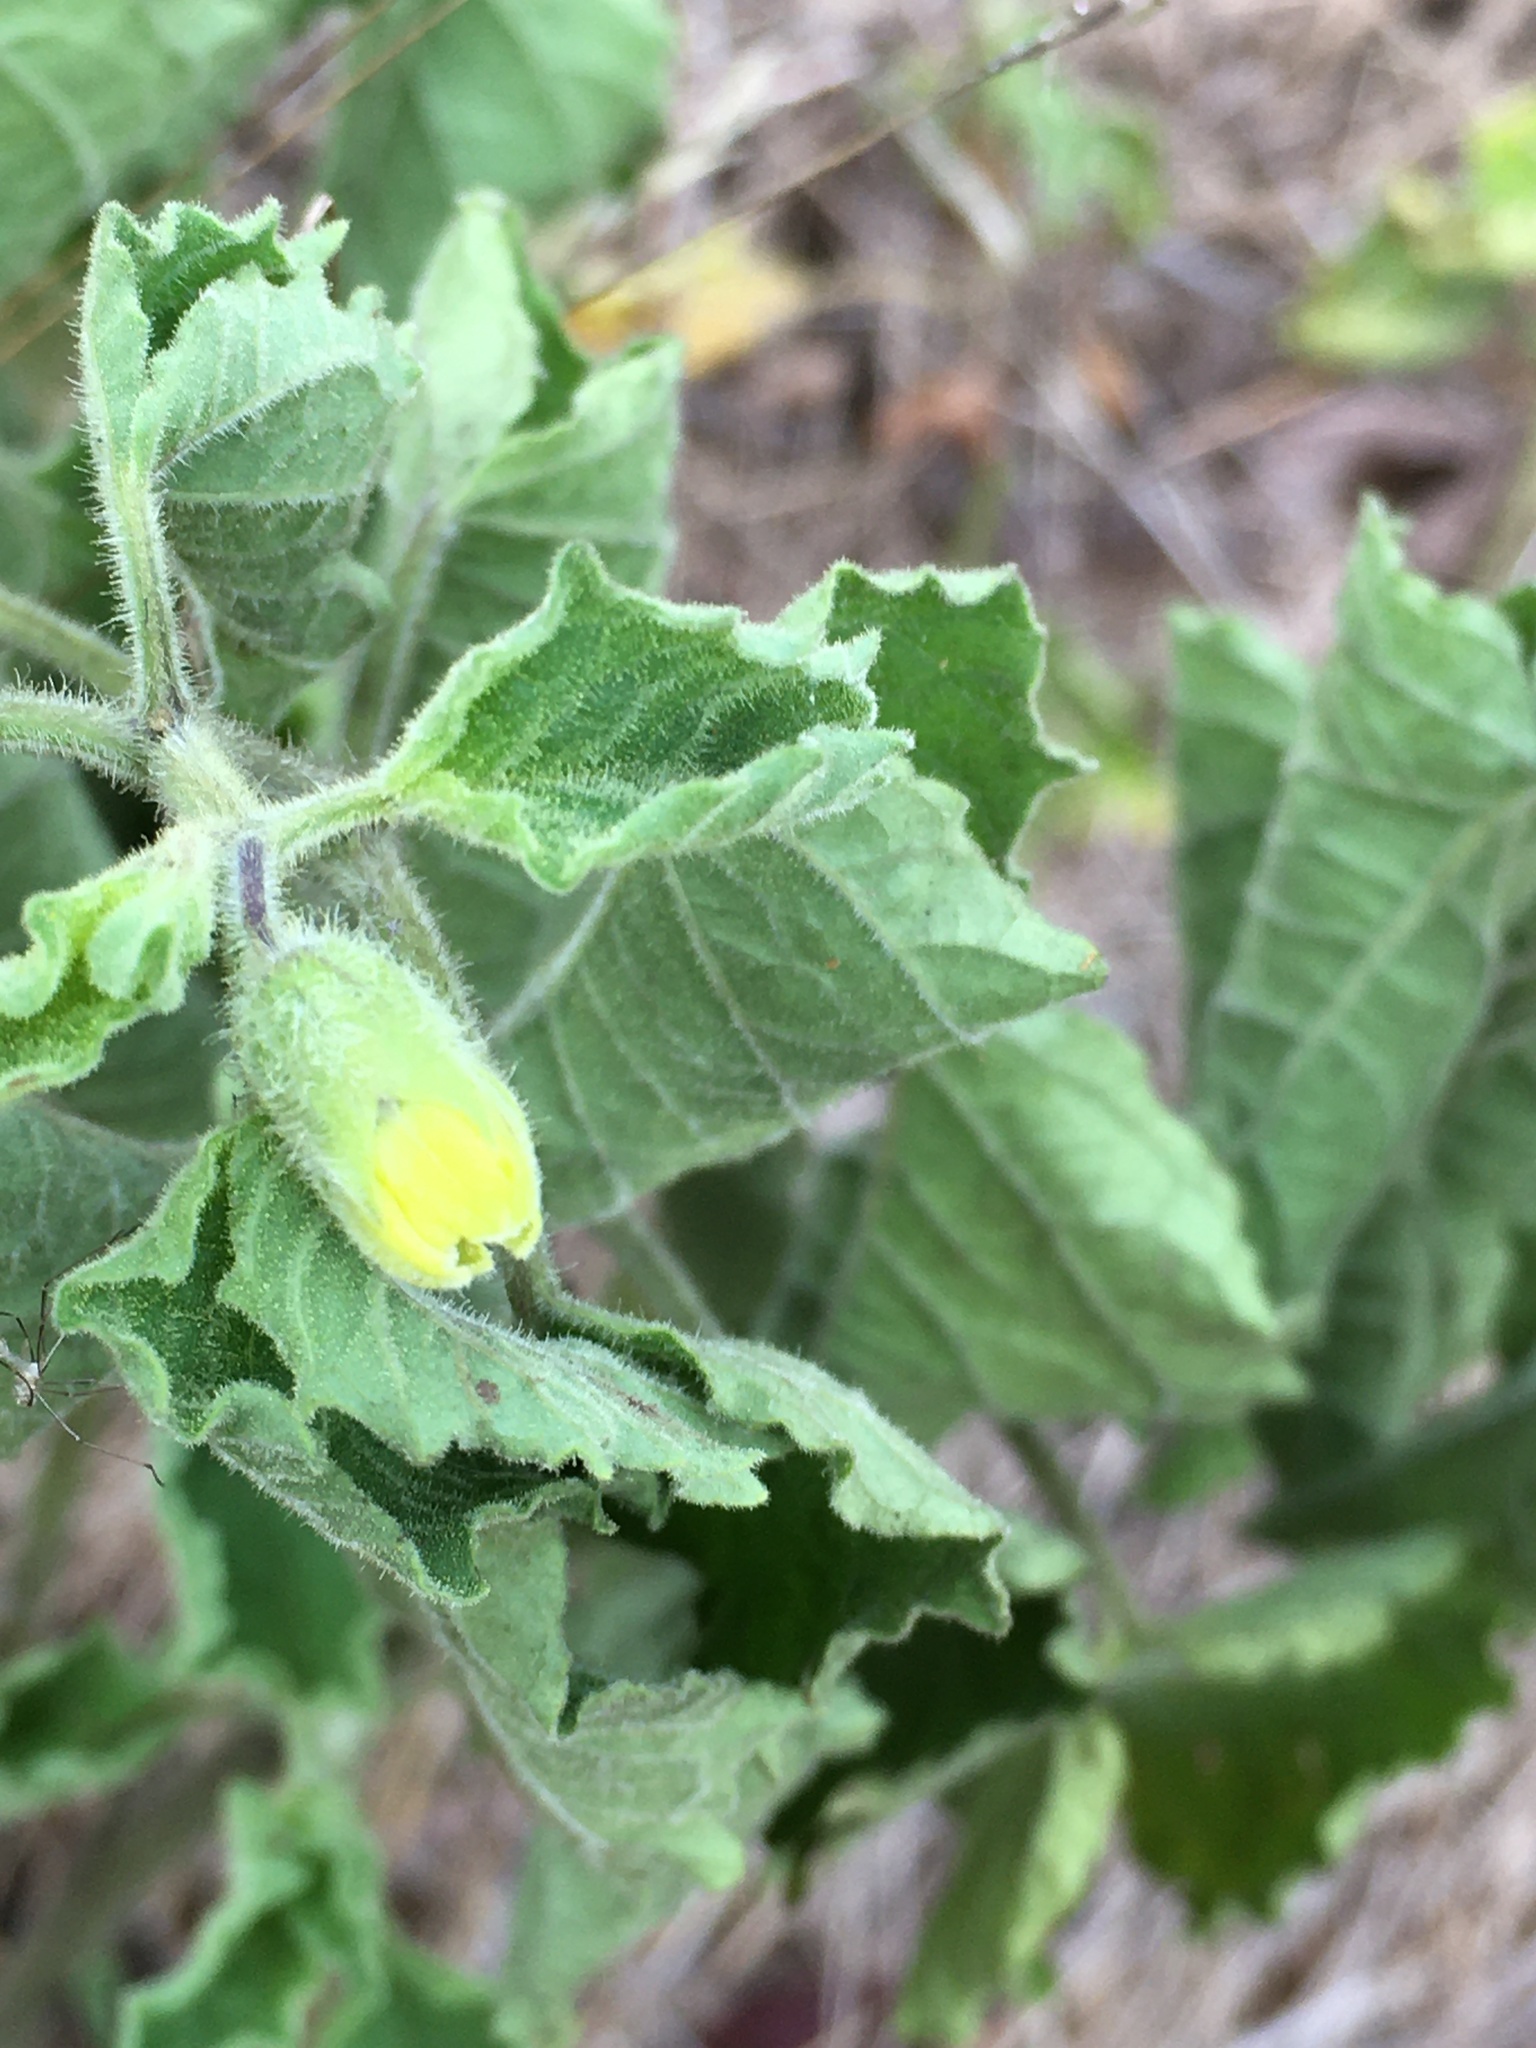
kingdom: Plantae
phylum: Tracheophyta
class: Magnoliopsida
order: Solanales
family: Solanaceae
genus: Physalis
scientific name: Physalis heterophylla
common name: Clammy ground-cherry
